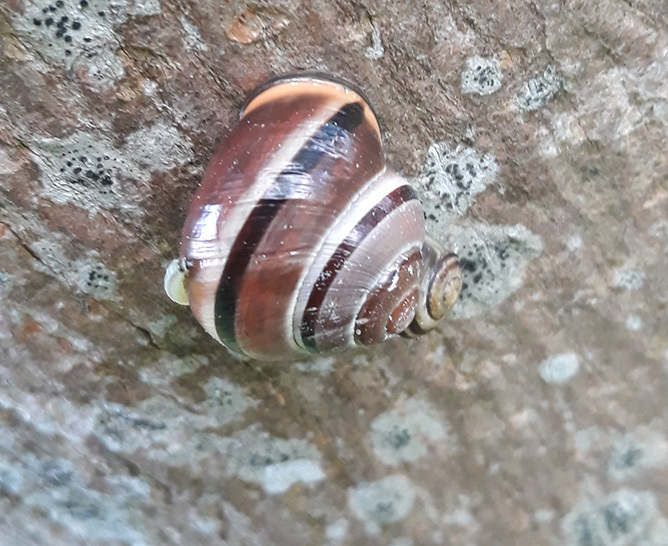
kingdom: Animalia
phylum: Mollusca
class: Gastropoda
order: Stylommatophora
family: Helicidae
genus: Cepaea
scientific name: Cepaea nemoralis
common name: Grovesnail
